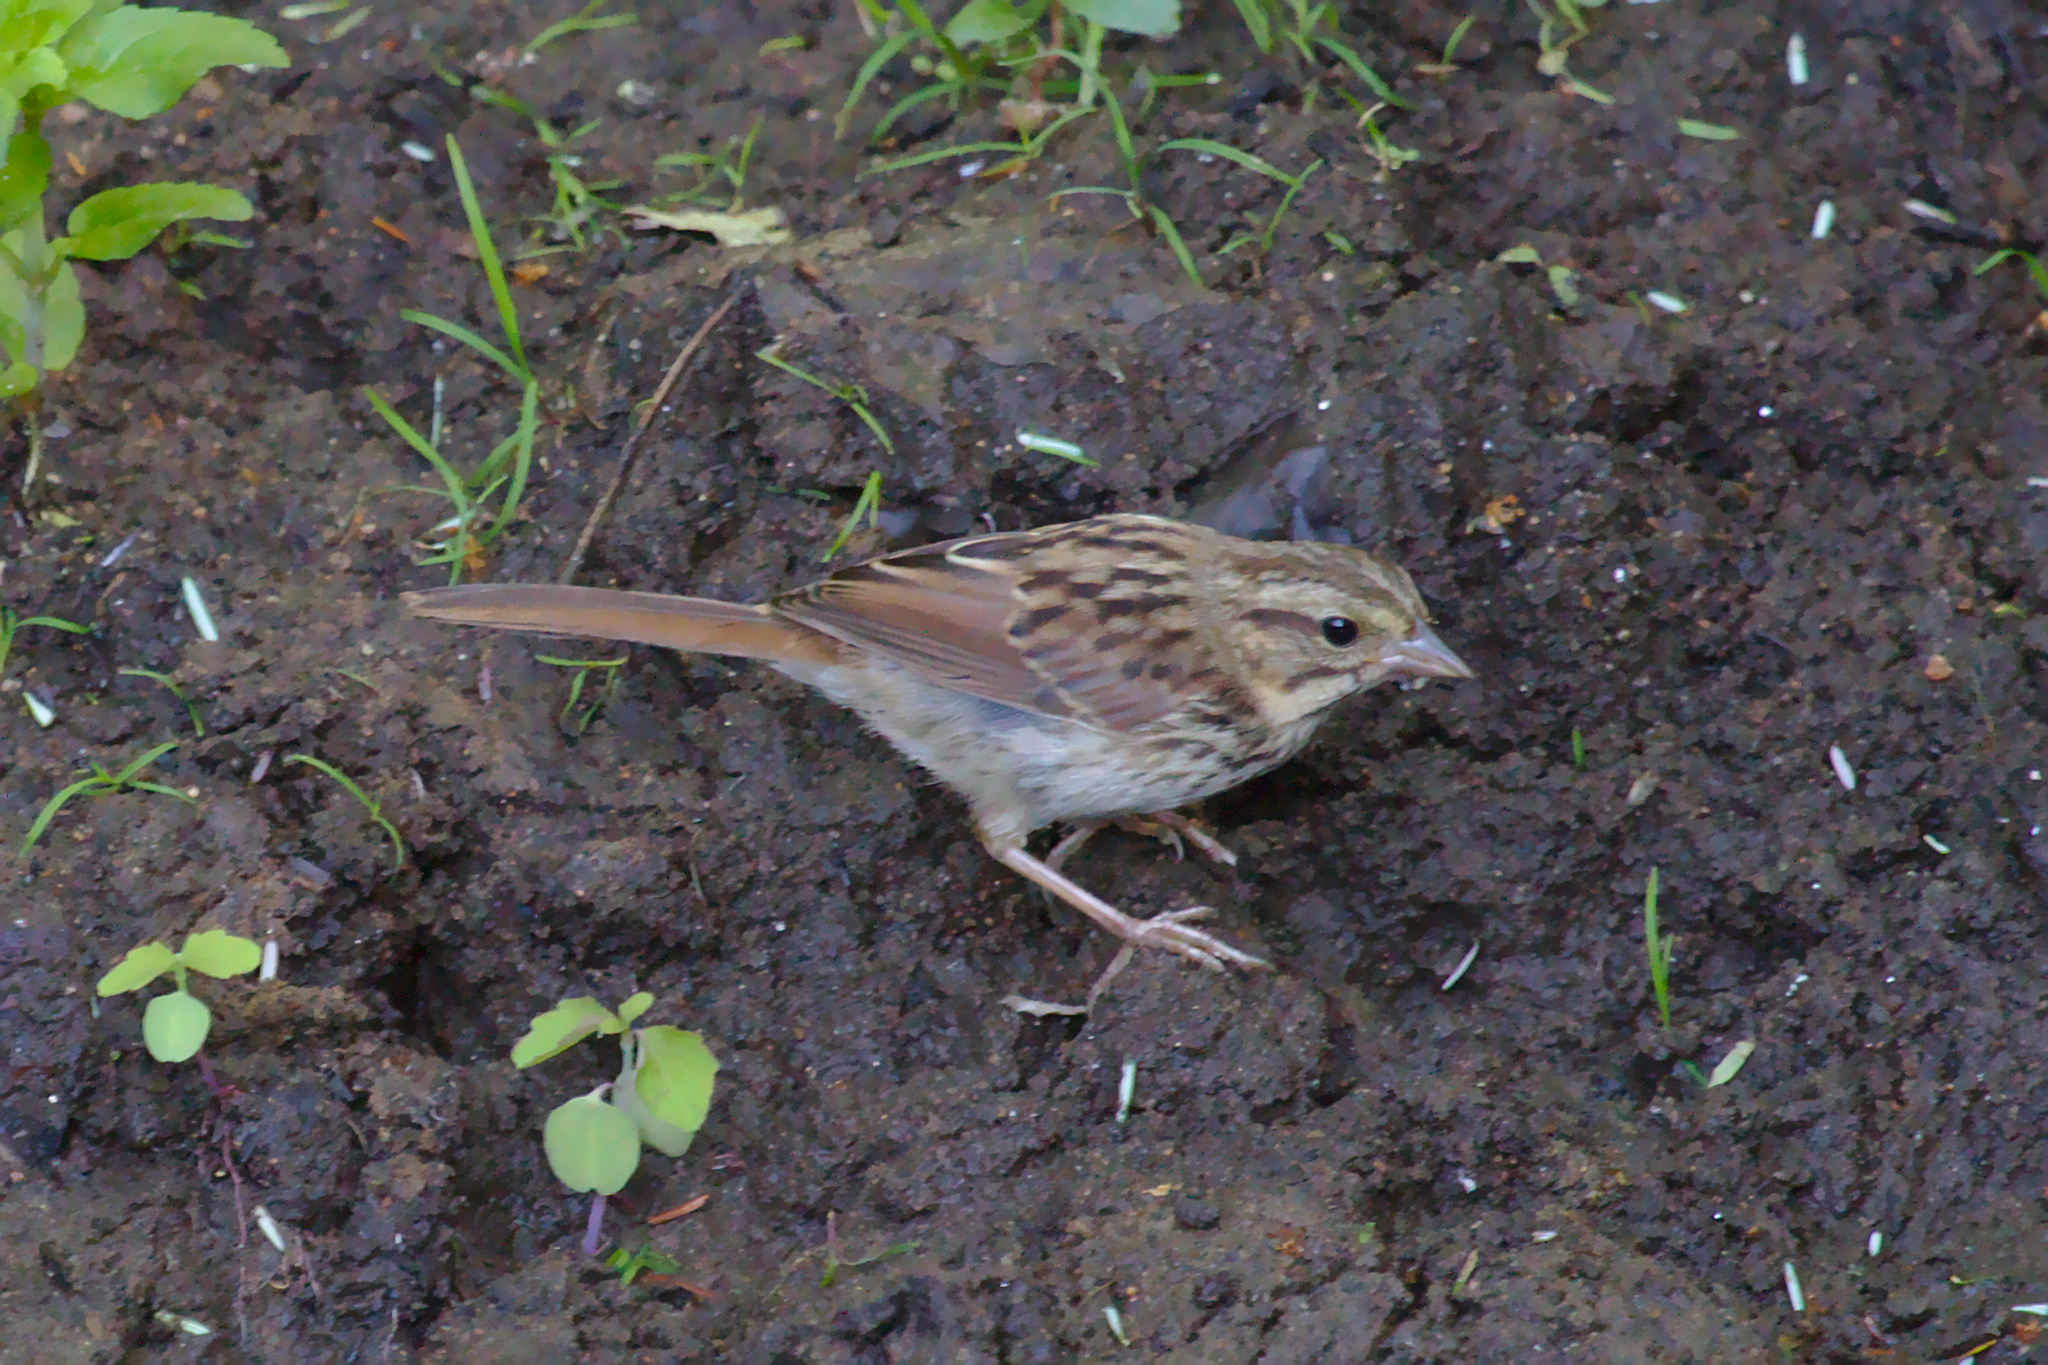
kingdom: Animalia
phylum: Chordata
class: Aves
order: Passeriformes
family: Passerellidae
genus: Melospiza
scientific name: Melospiza melodia
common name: Song sparrow
